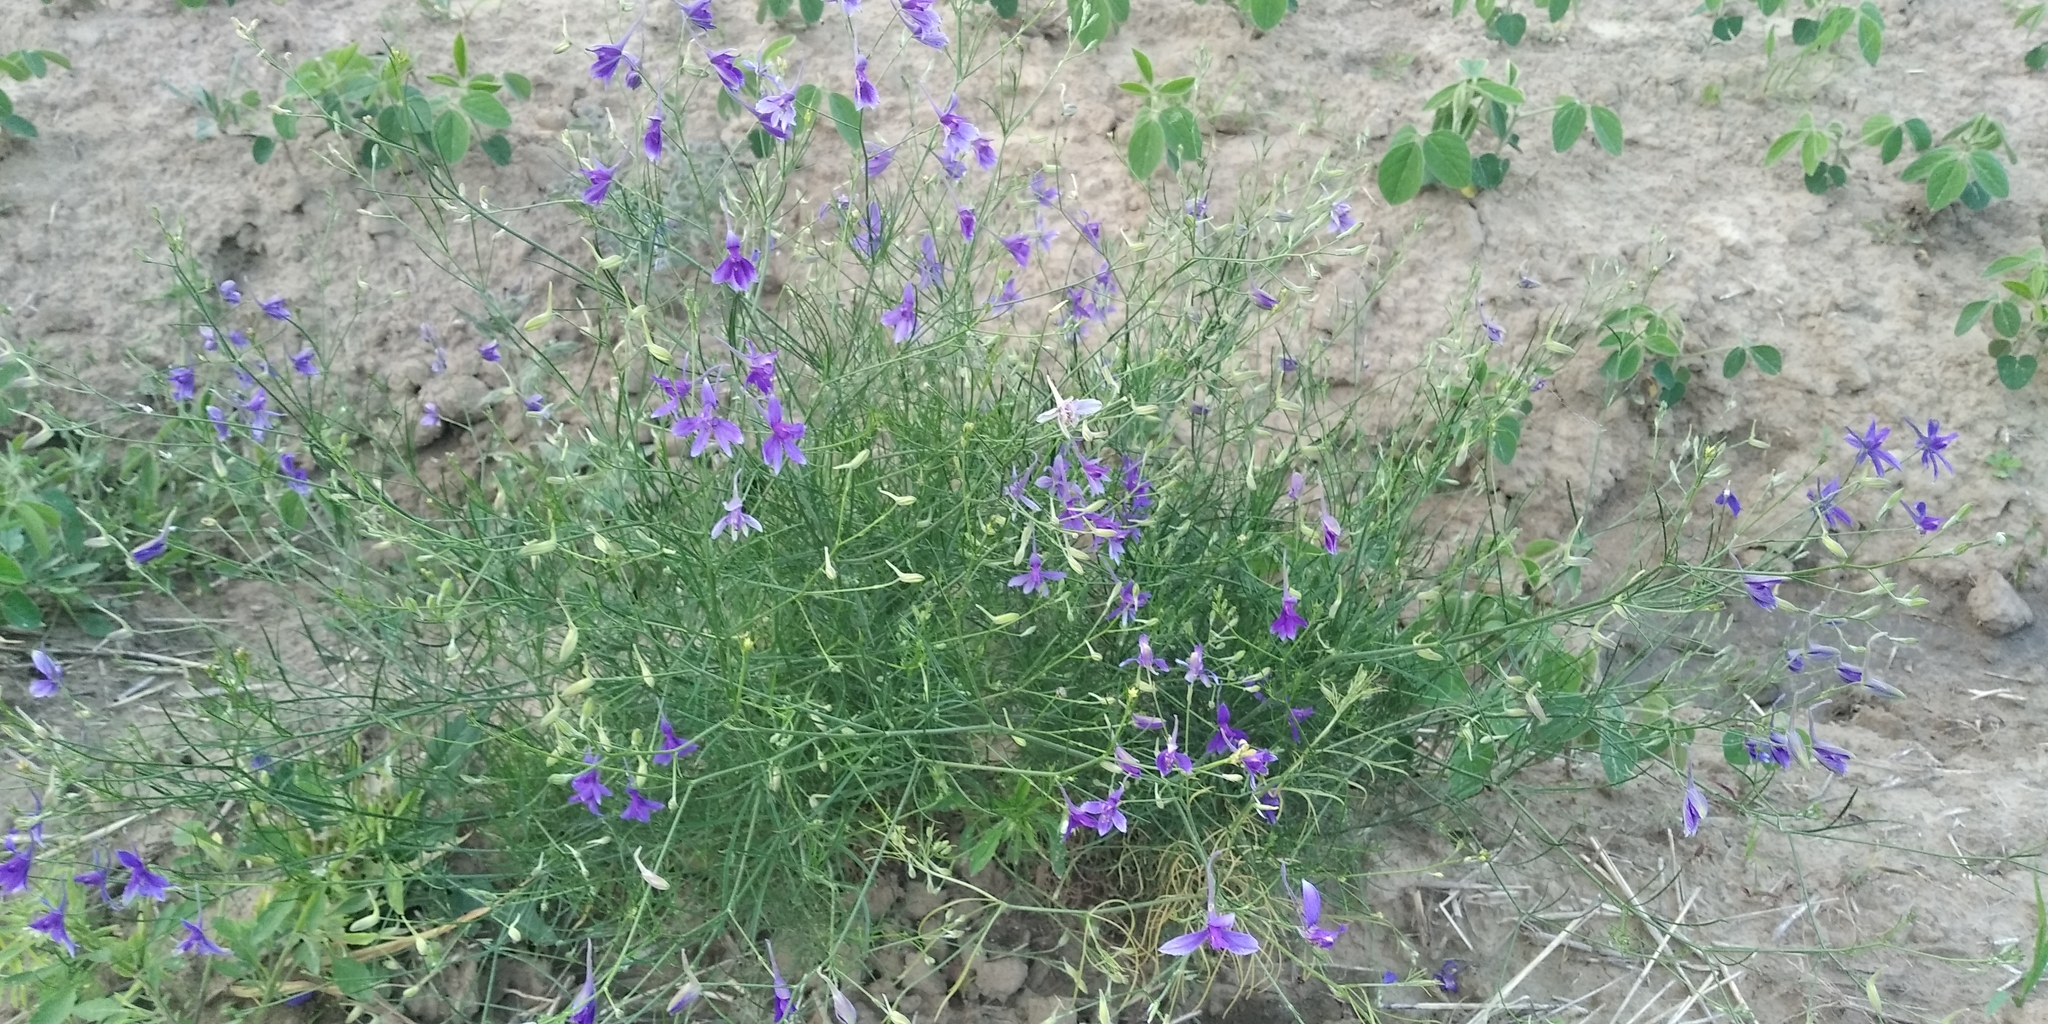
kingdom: Plantae
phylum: Tracheophyta
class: Magnoliopsida
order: Ranunculales
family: Ranunculaceae
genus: Delphinium
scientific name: Delphinium consolida
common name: Branching larkspur
